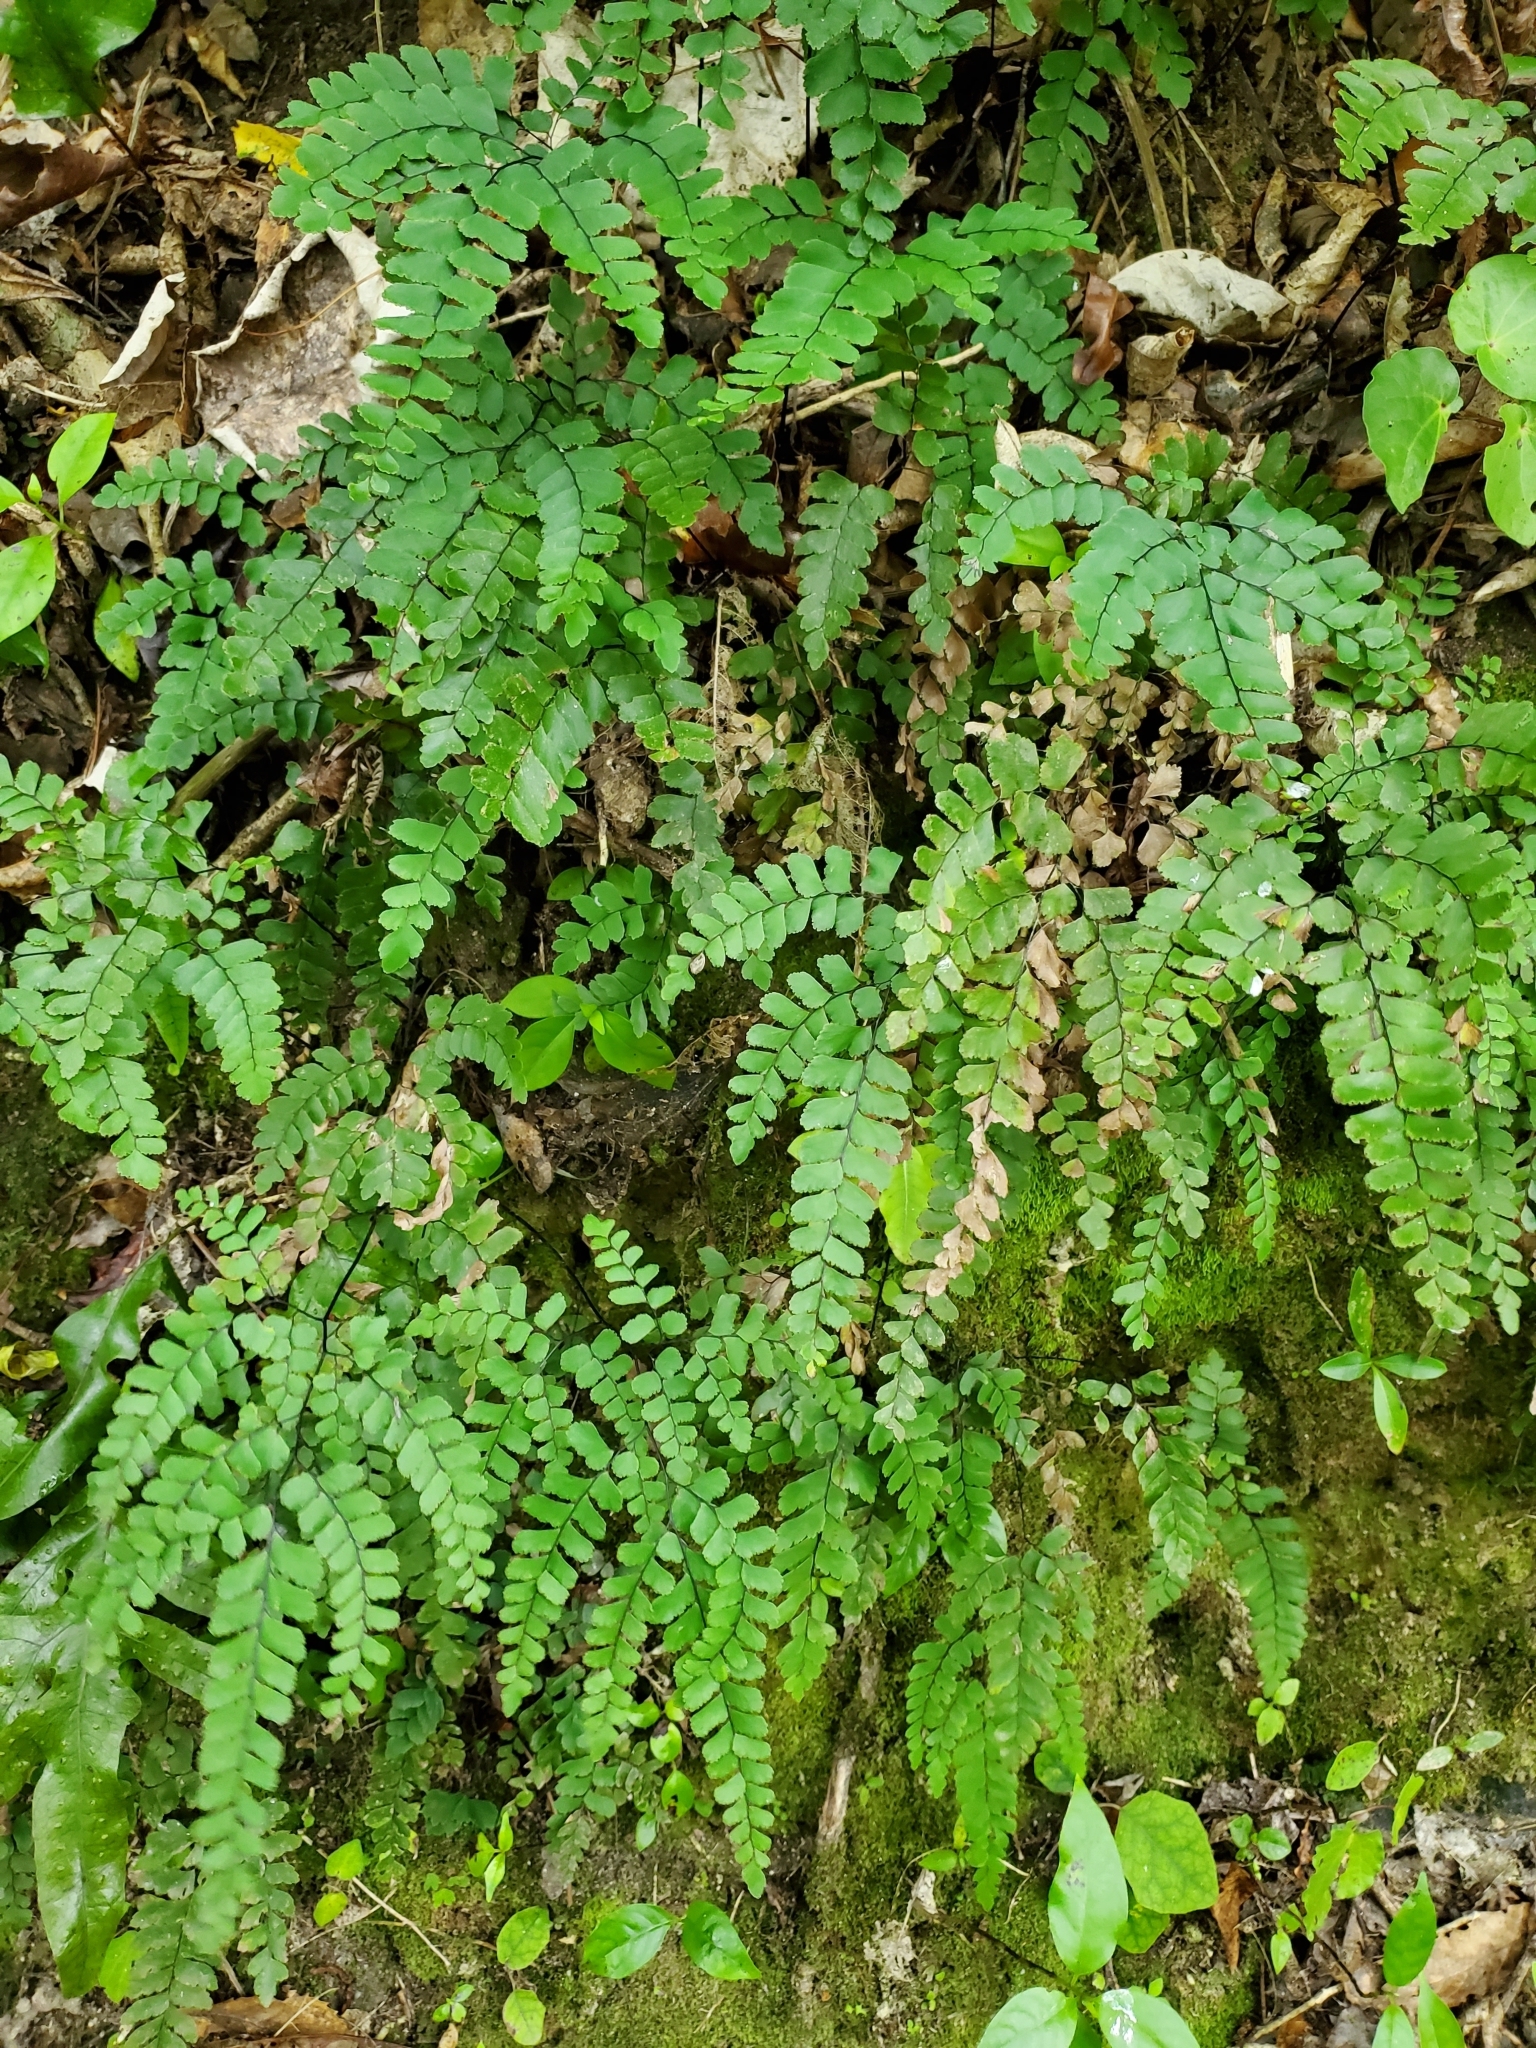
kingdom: Plantae
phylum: Tracheophyta
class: Polypodiopsida
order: Polypodiales
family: Pteridaceae
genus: Adiantum
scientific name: Adiantum cunninghamii
